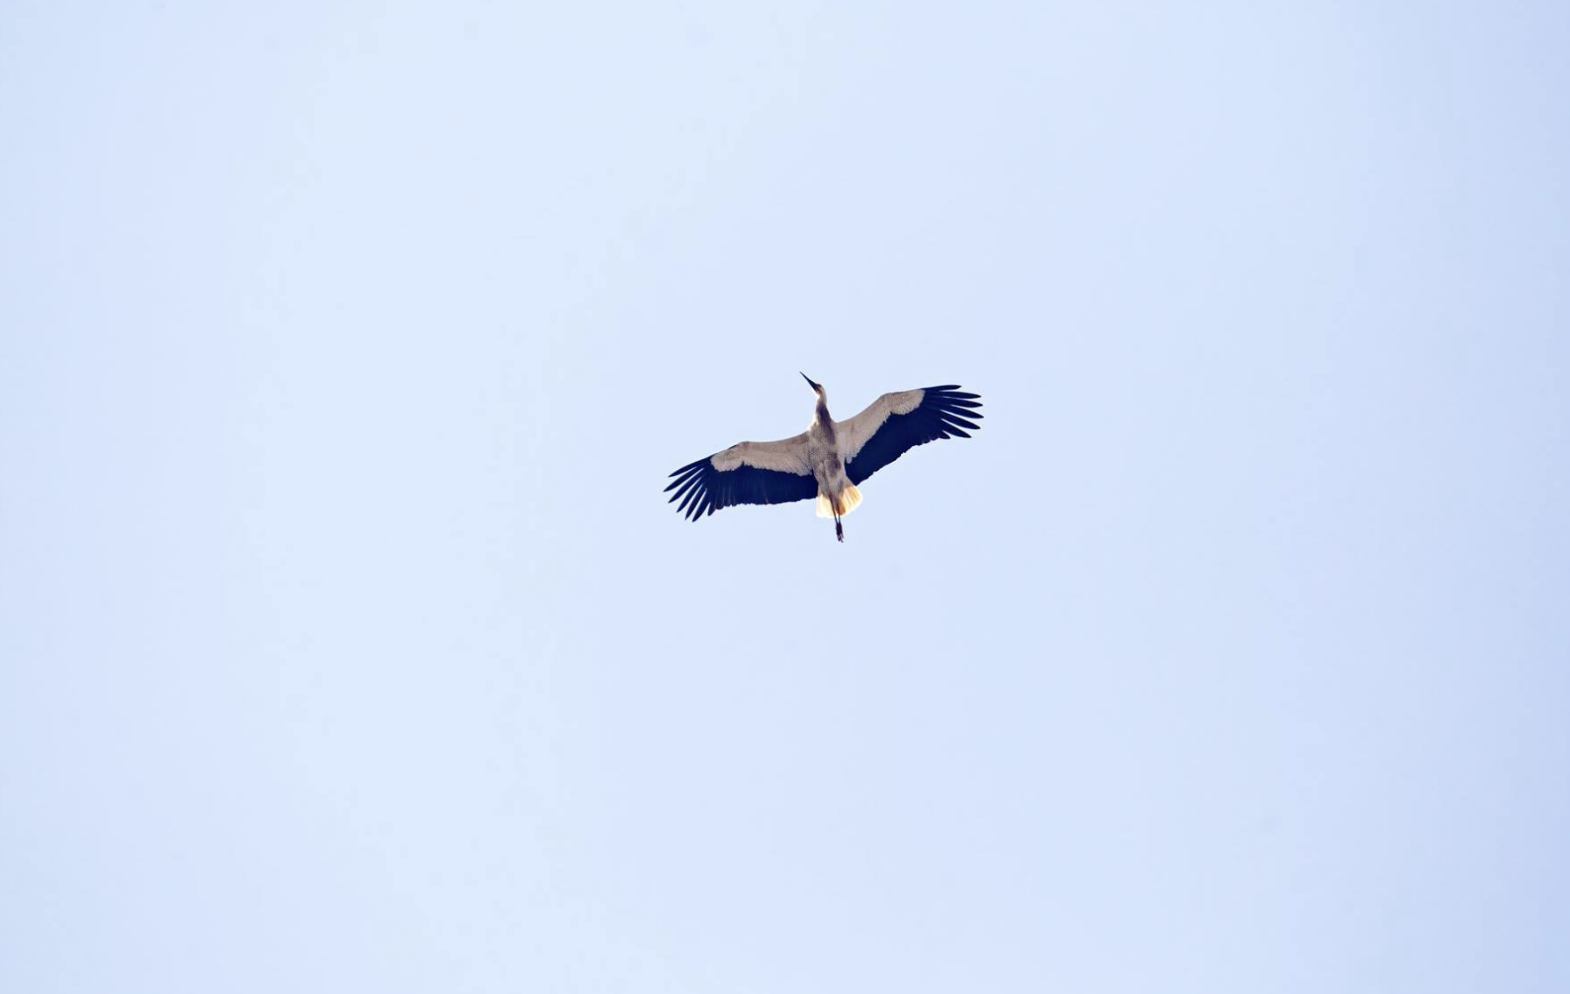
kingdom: Animalia
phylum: Chordata
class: Aves
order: Ciconiiformes
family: Ciconiidae
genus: Ciconia
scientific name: Ciconia ciconia
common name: White stork
